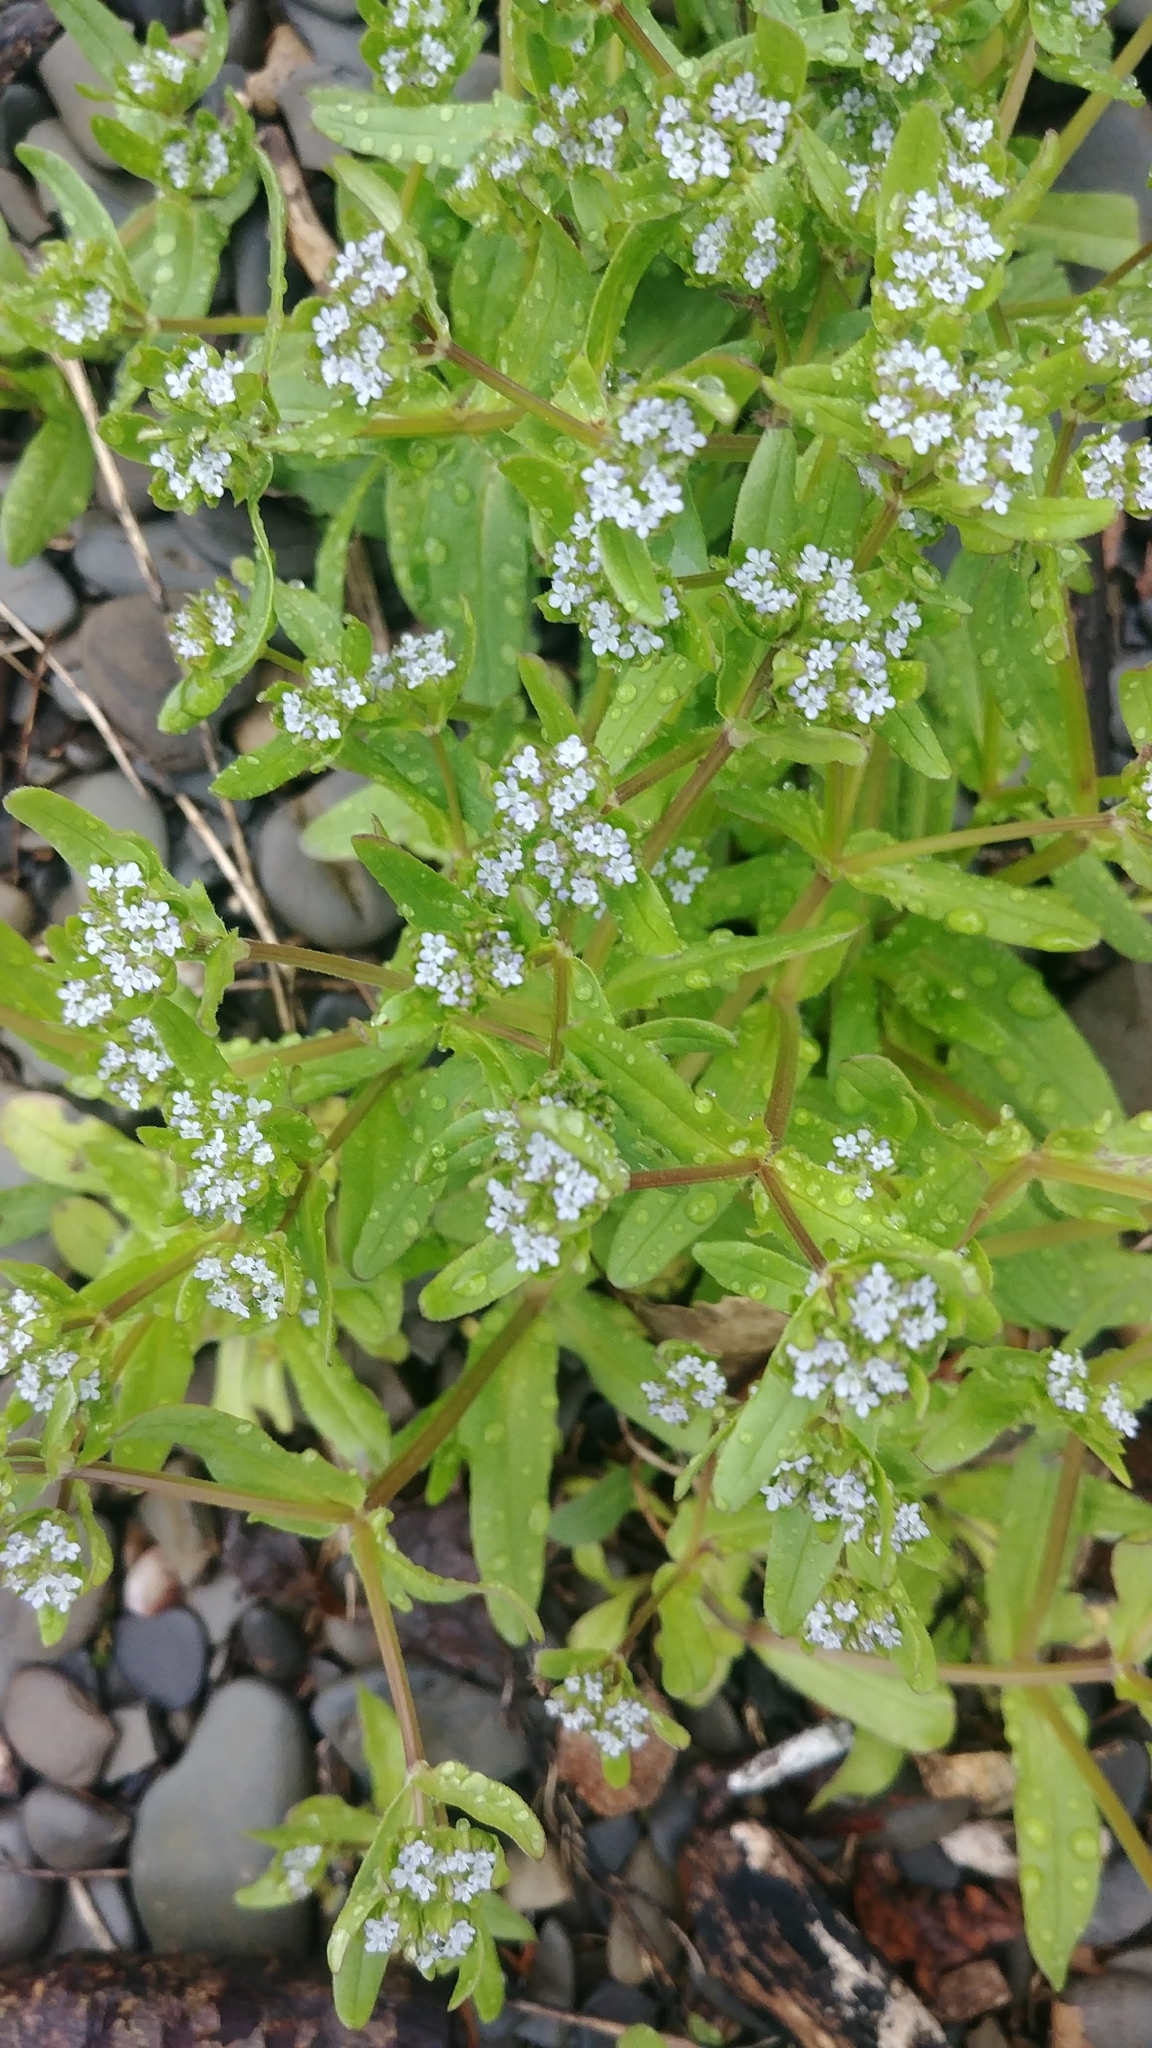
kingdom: Plantae
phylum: Tracheophyta
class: Magnoliopsida
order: Dipsacales
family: Caprifoliaceae
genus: Valerianella
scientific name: Valerianella locusta
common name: Common cornsalad
